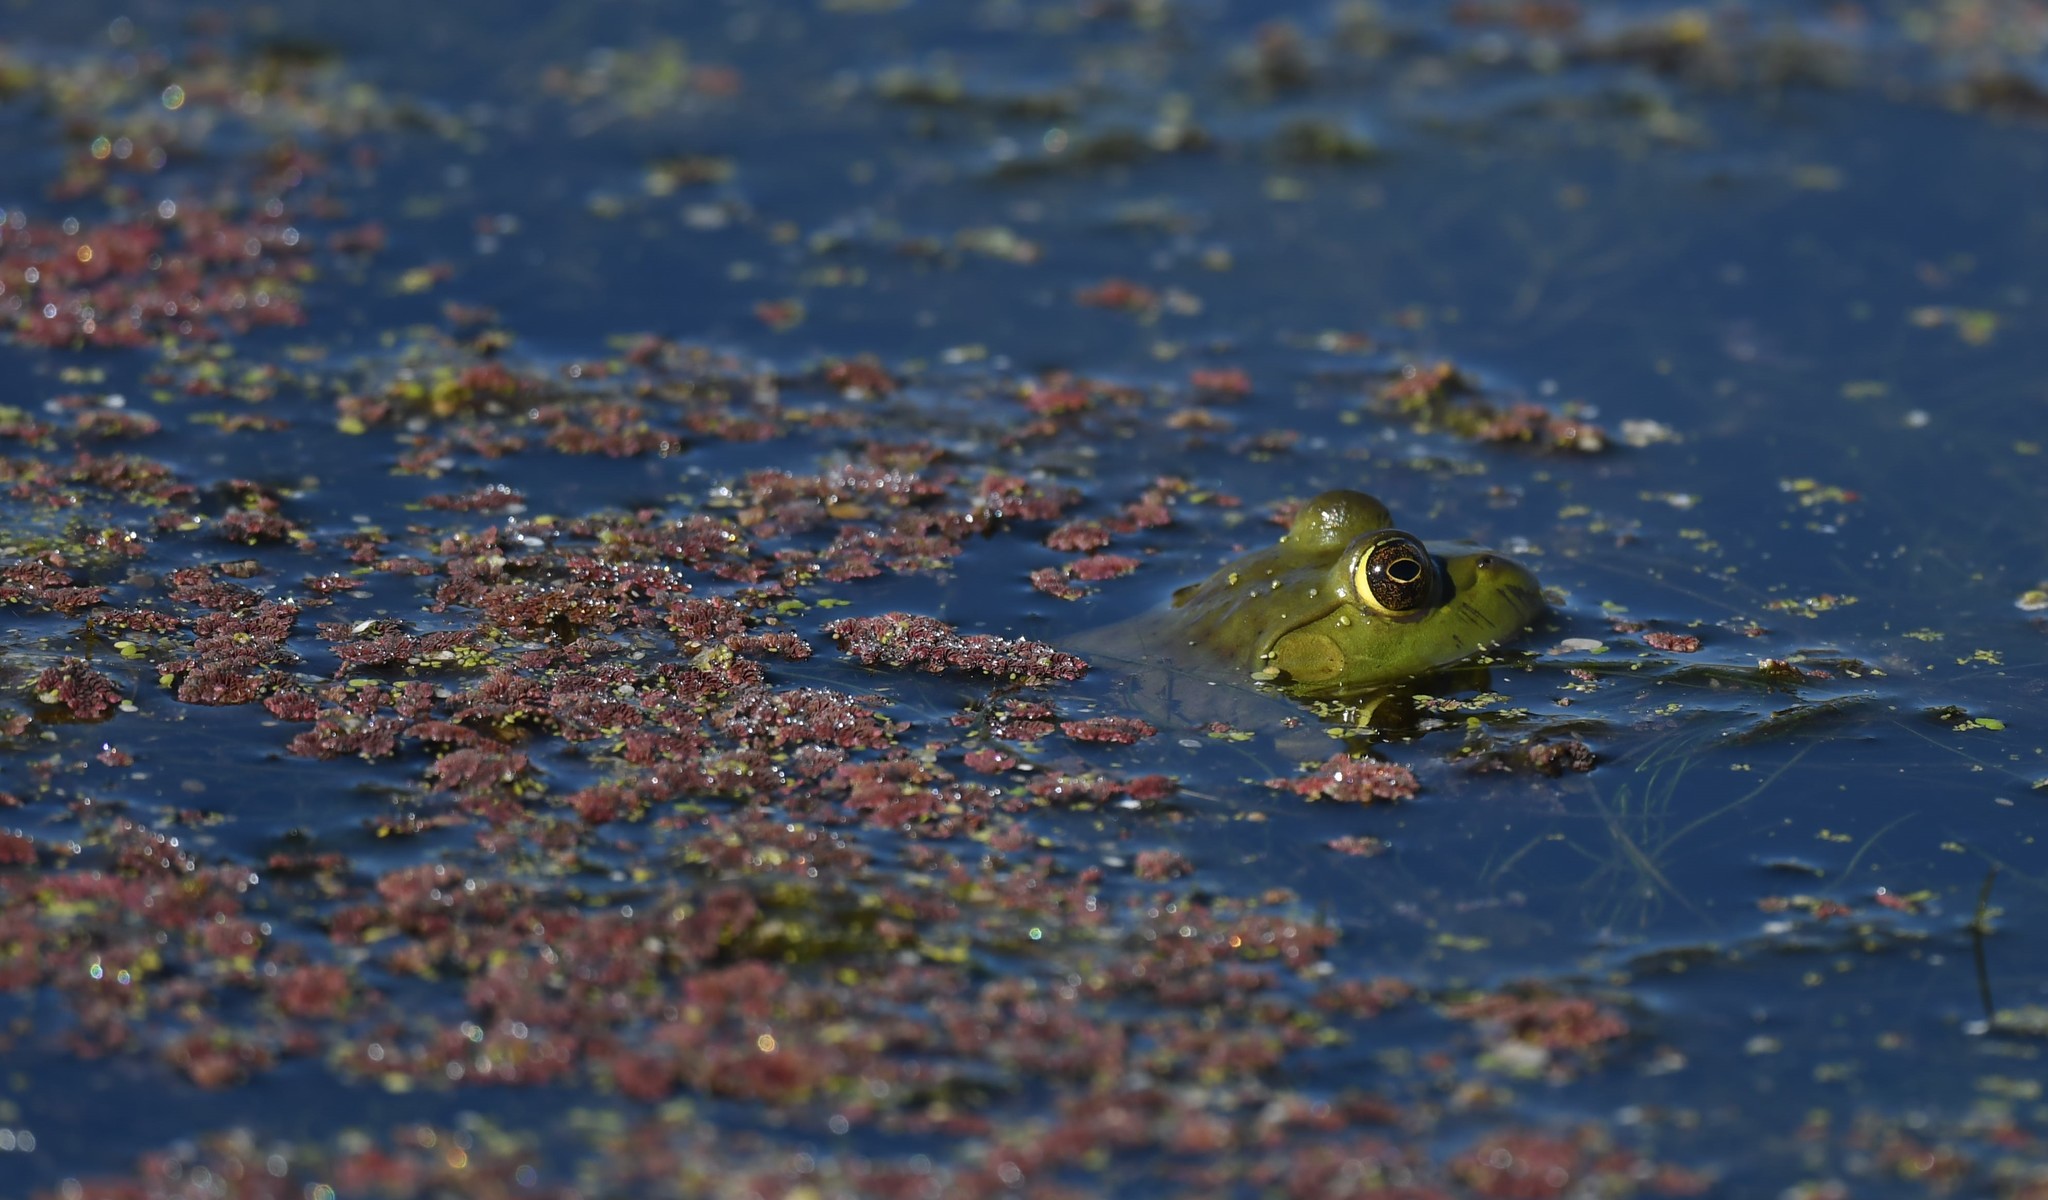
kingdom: Animalia
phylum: Chordata
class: Amphibia
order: Anura
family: Ranidae
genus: Lithobates
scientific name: Lithobates catesbeianus
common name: American bullfrog
